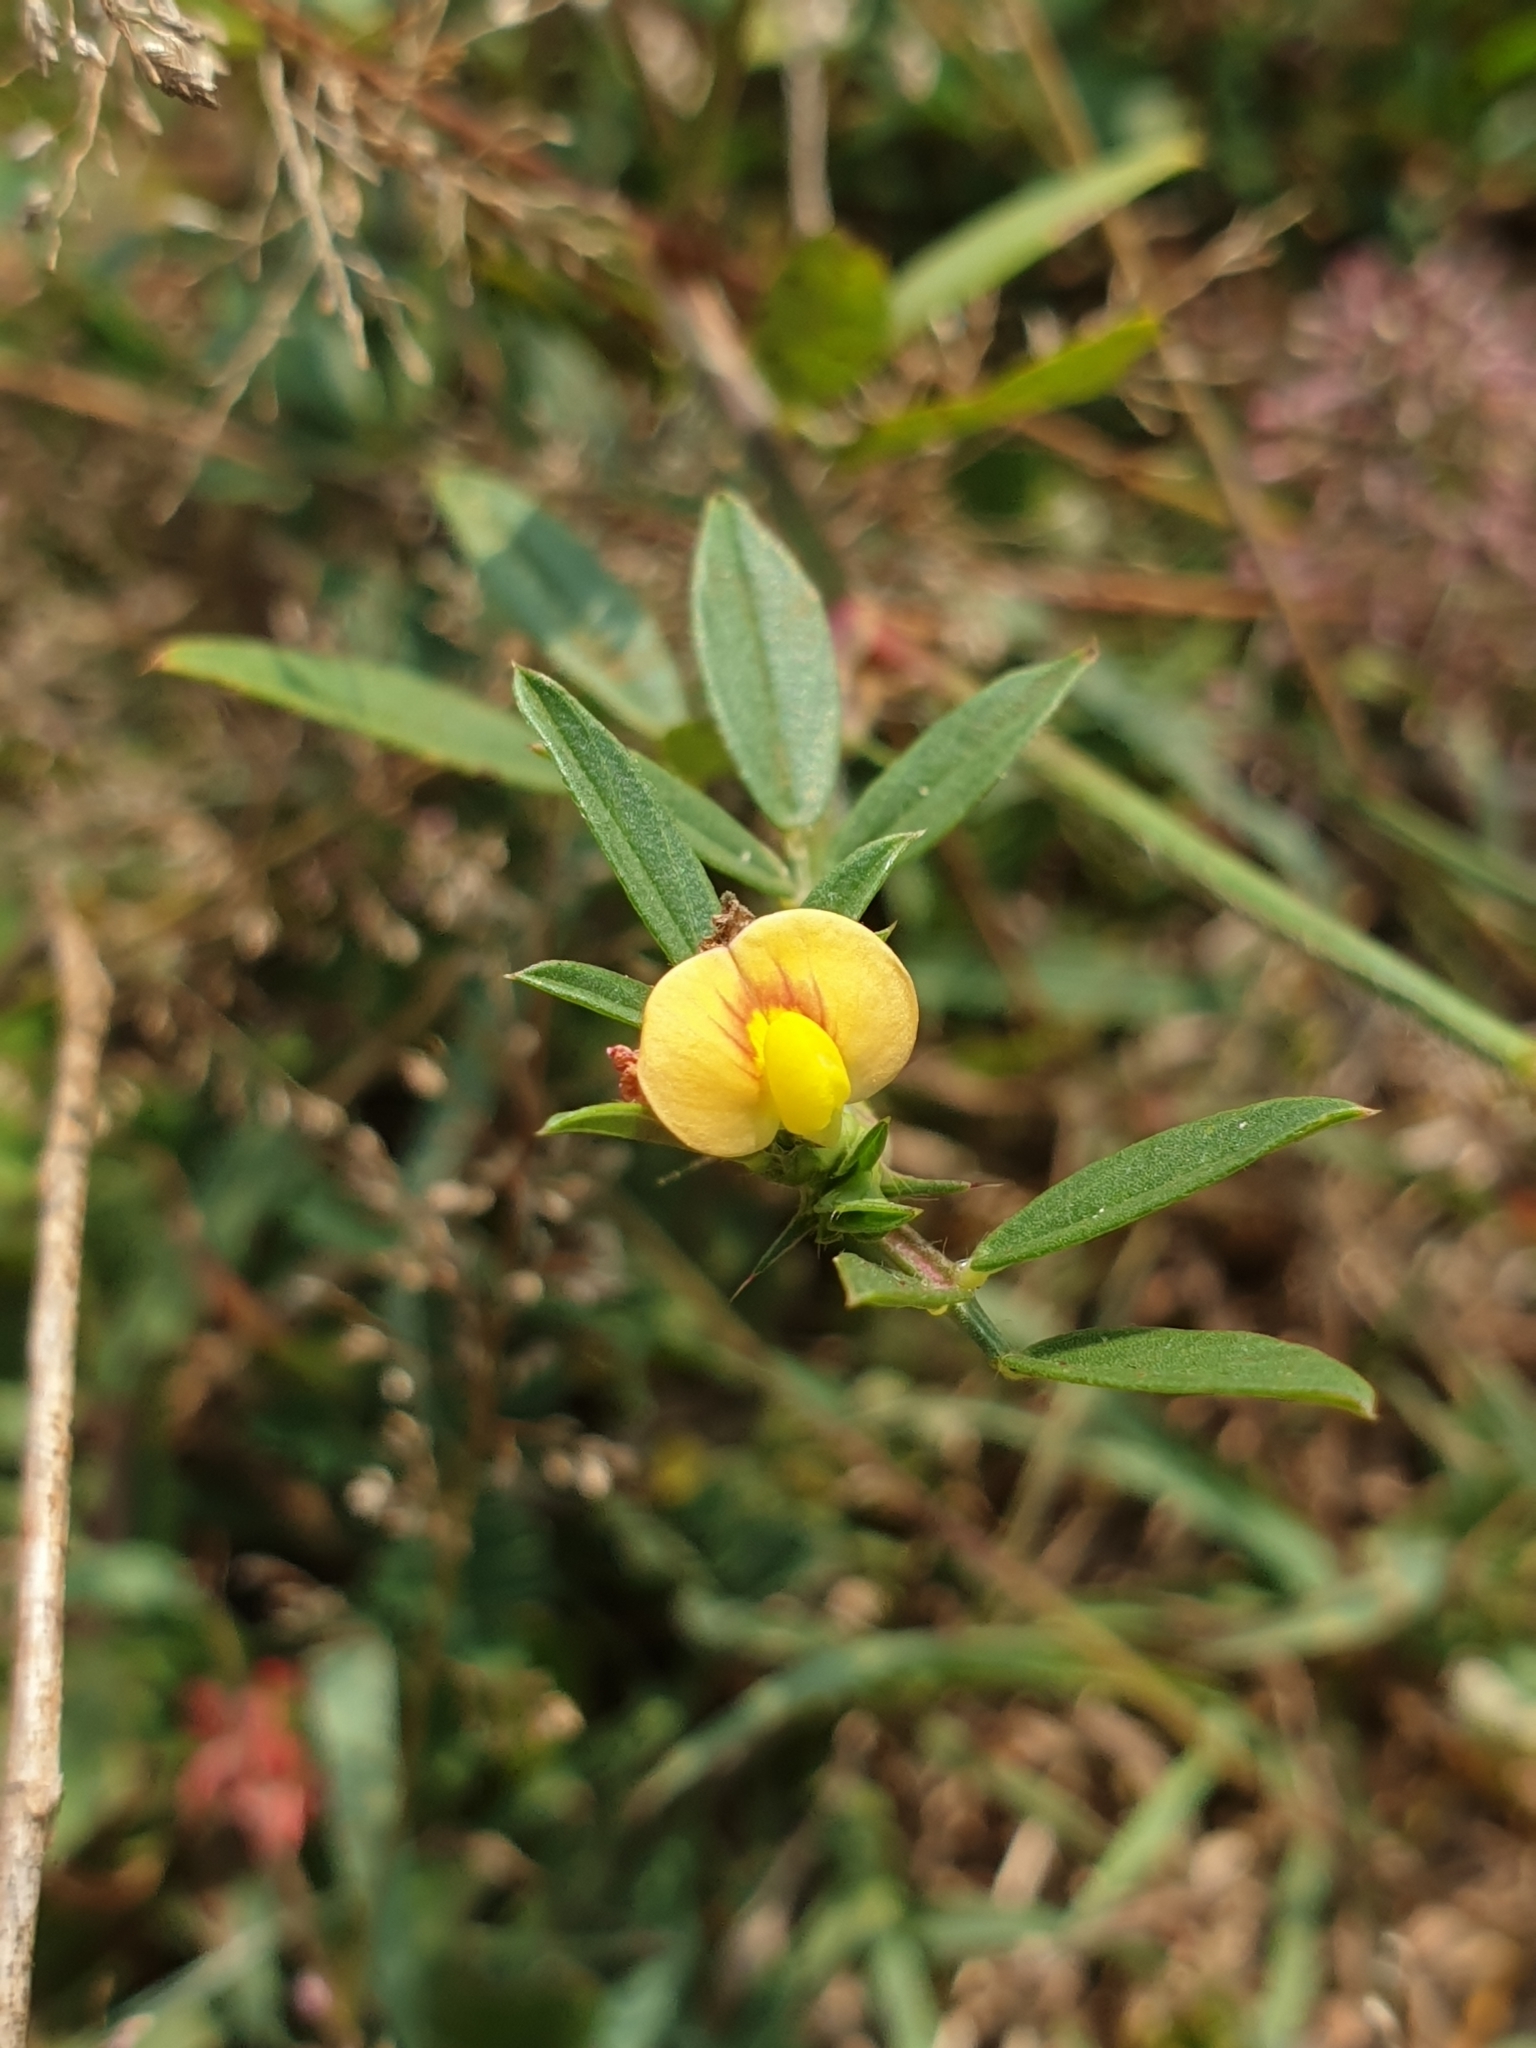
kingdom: Plantae
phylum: Tracheophyta
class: Magnoliopsida
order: Fabales
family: Fabaceae
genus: Stylosanthes
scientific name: Stylosanthes guianensis
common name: Pencil flower
